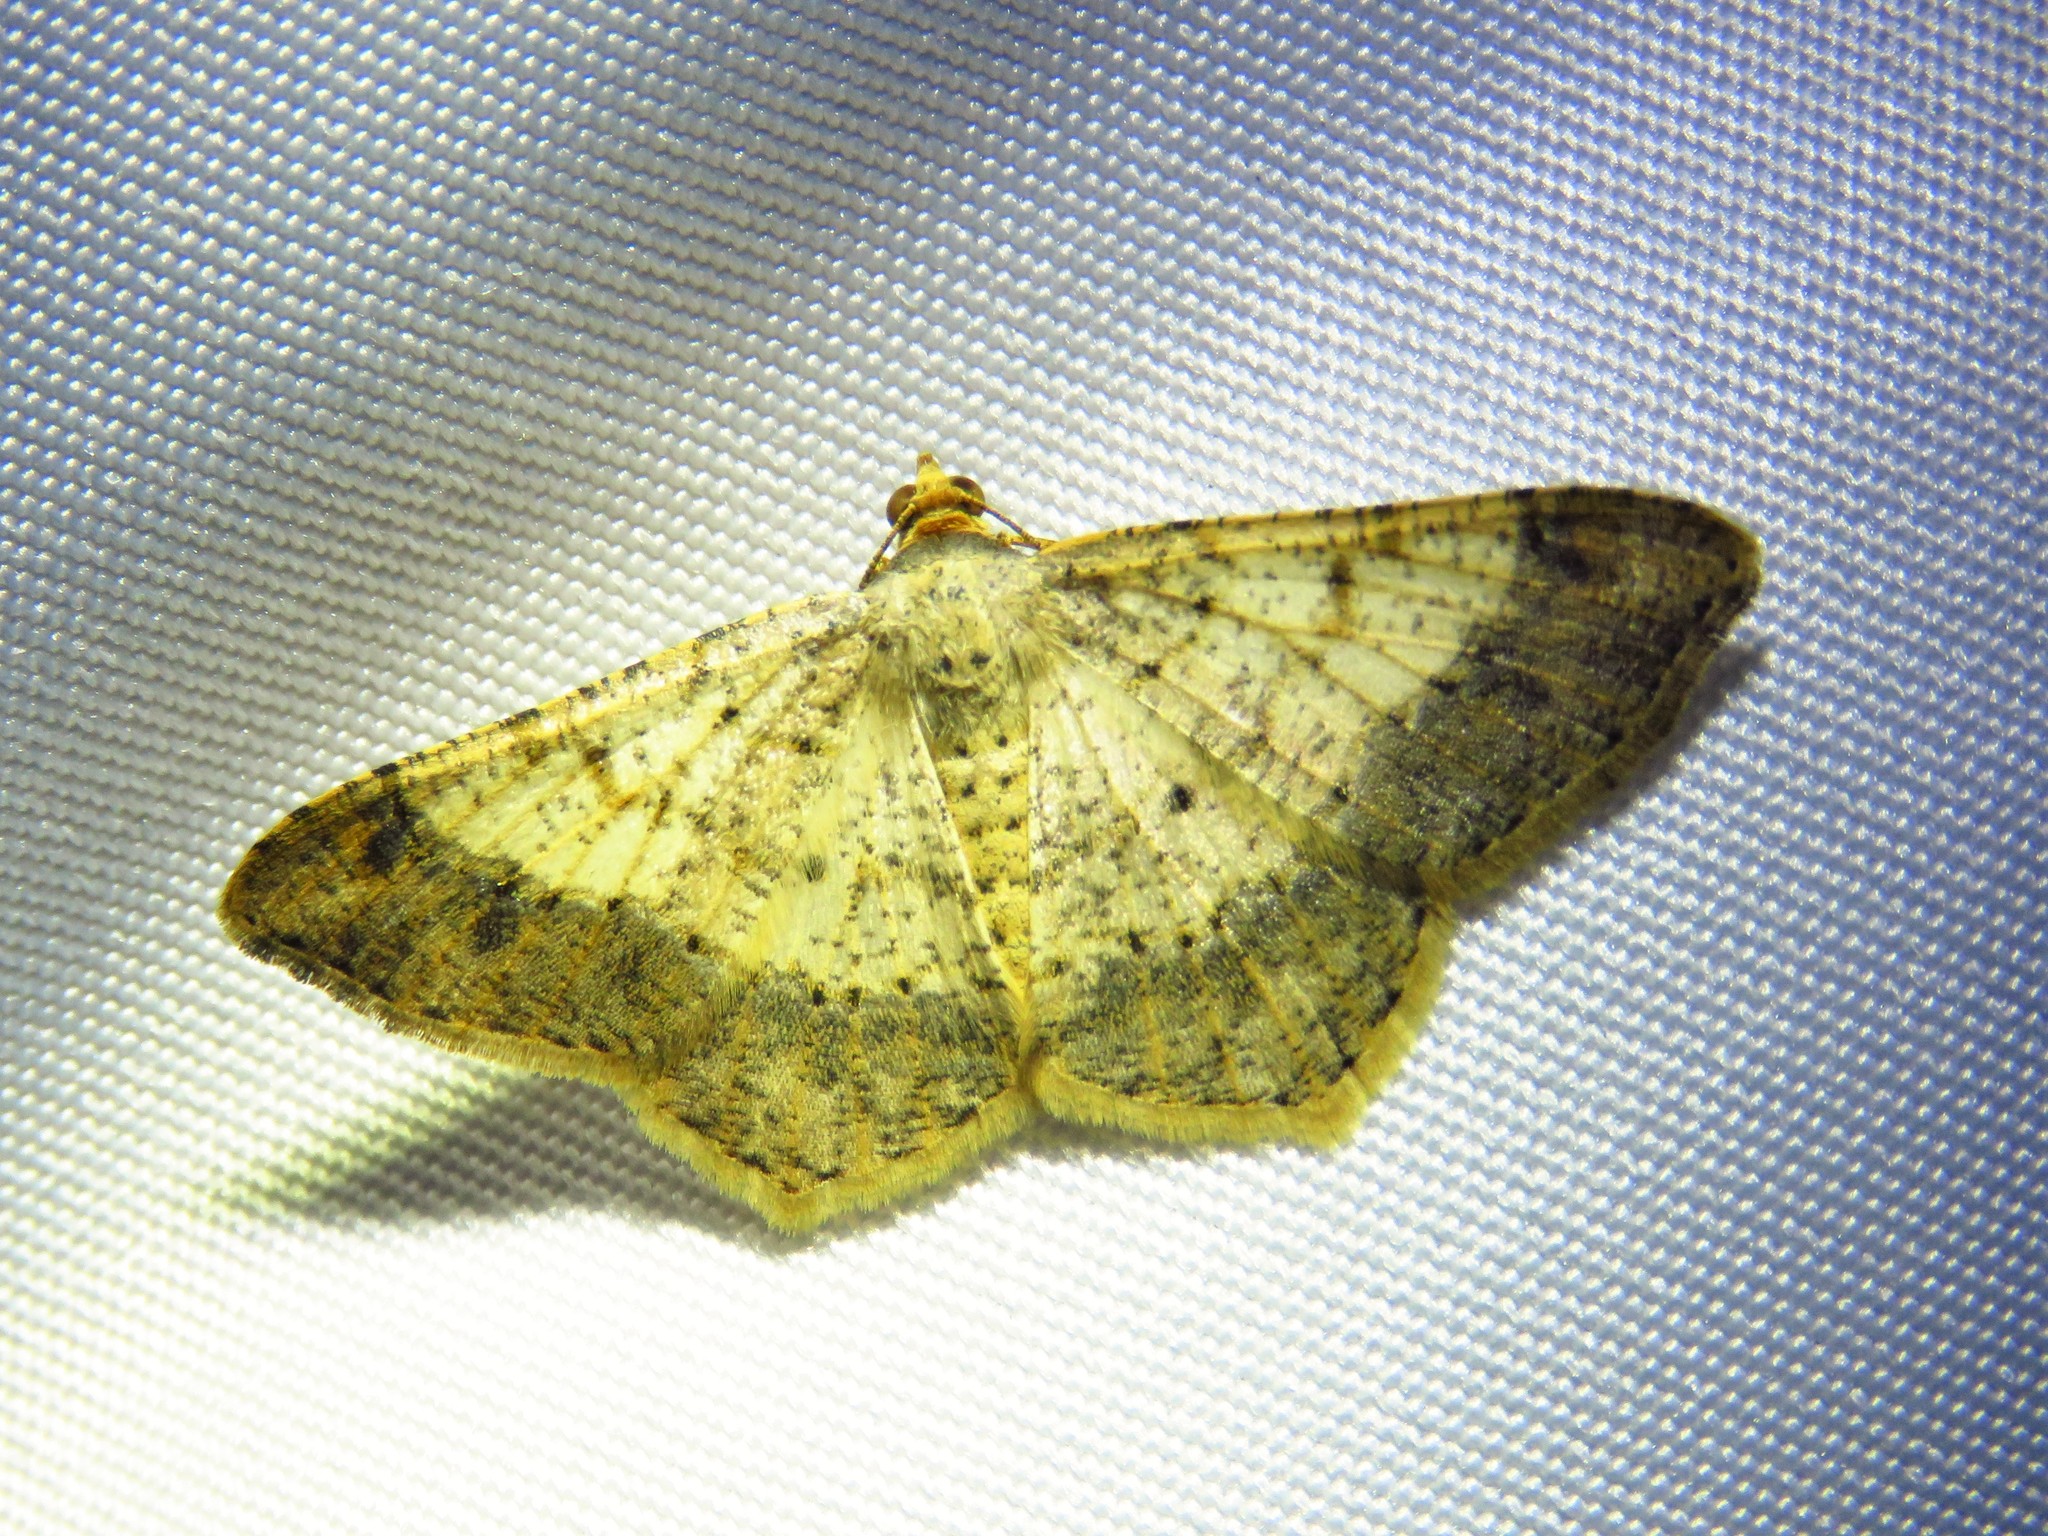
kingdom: Animalia
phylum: Arthropoda
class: Insecta
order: Lepidoptera
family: Geometridae
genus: Macaria
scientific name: Macaria abydata
